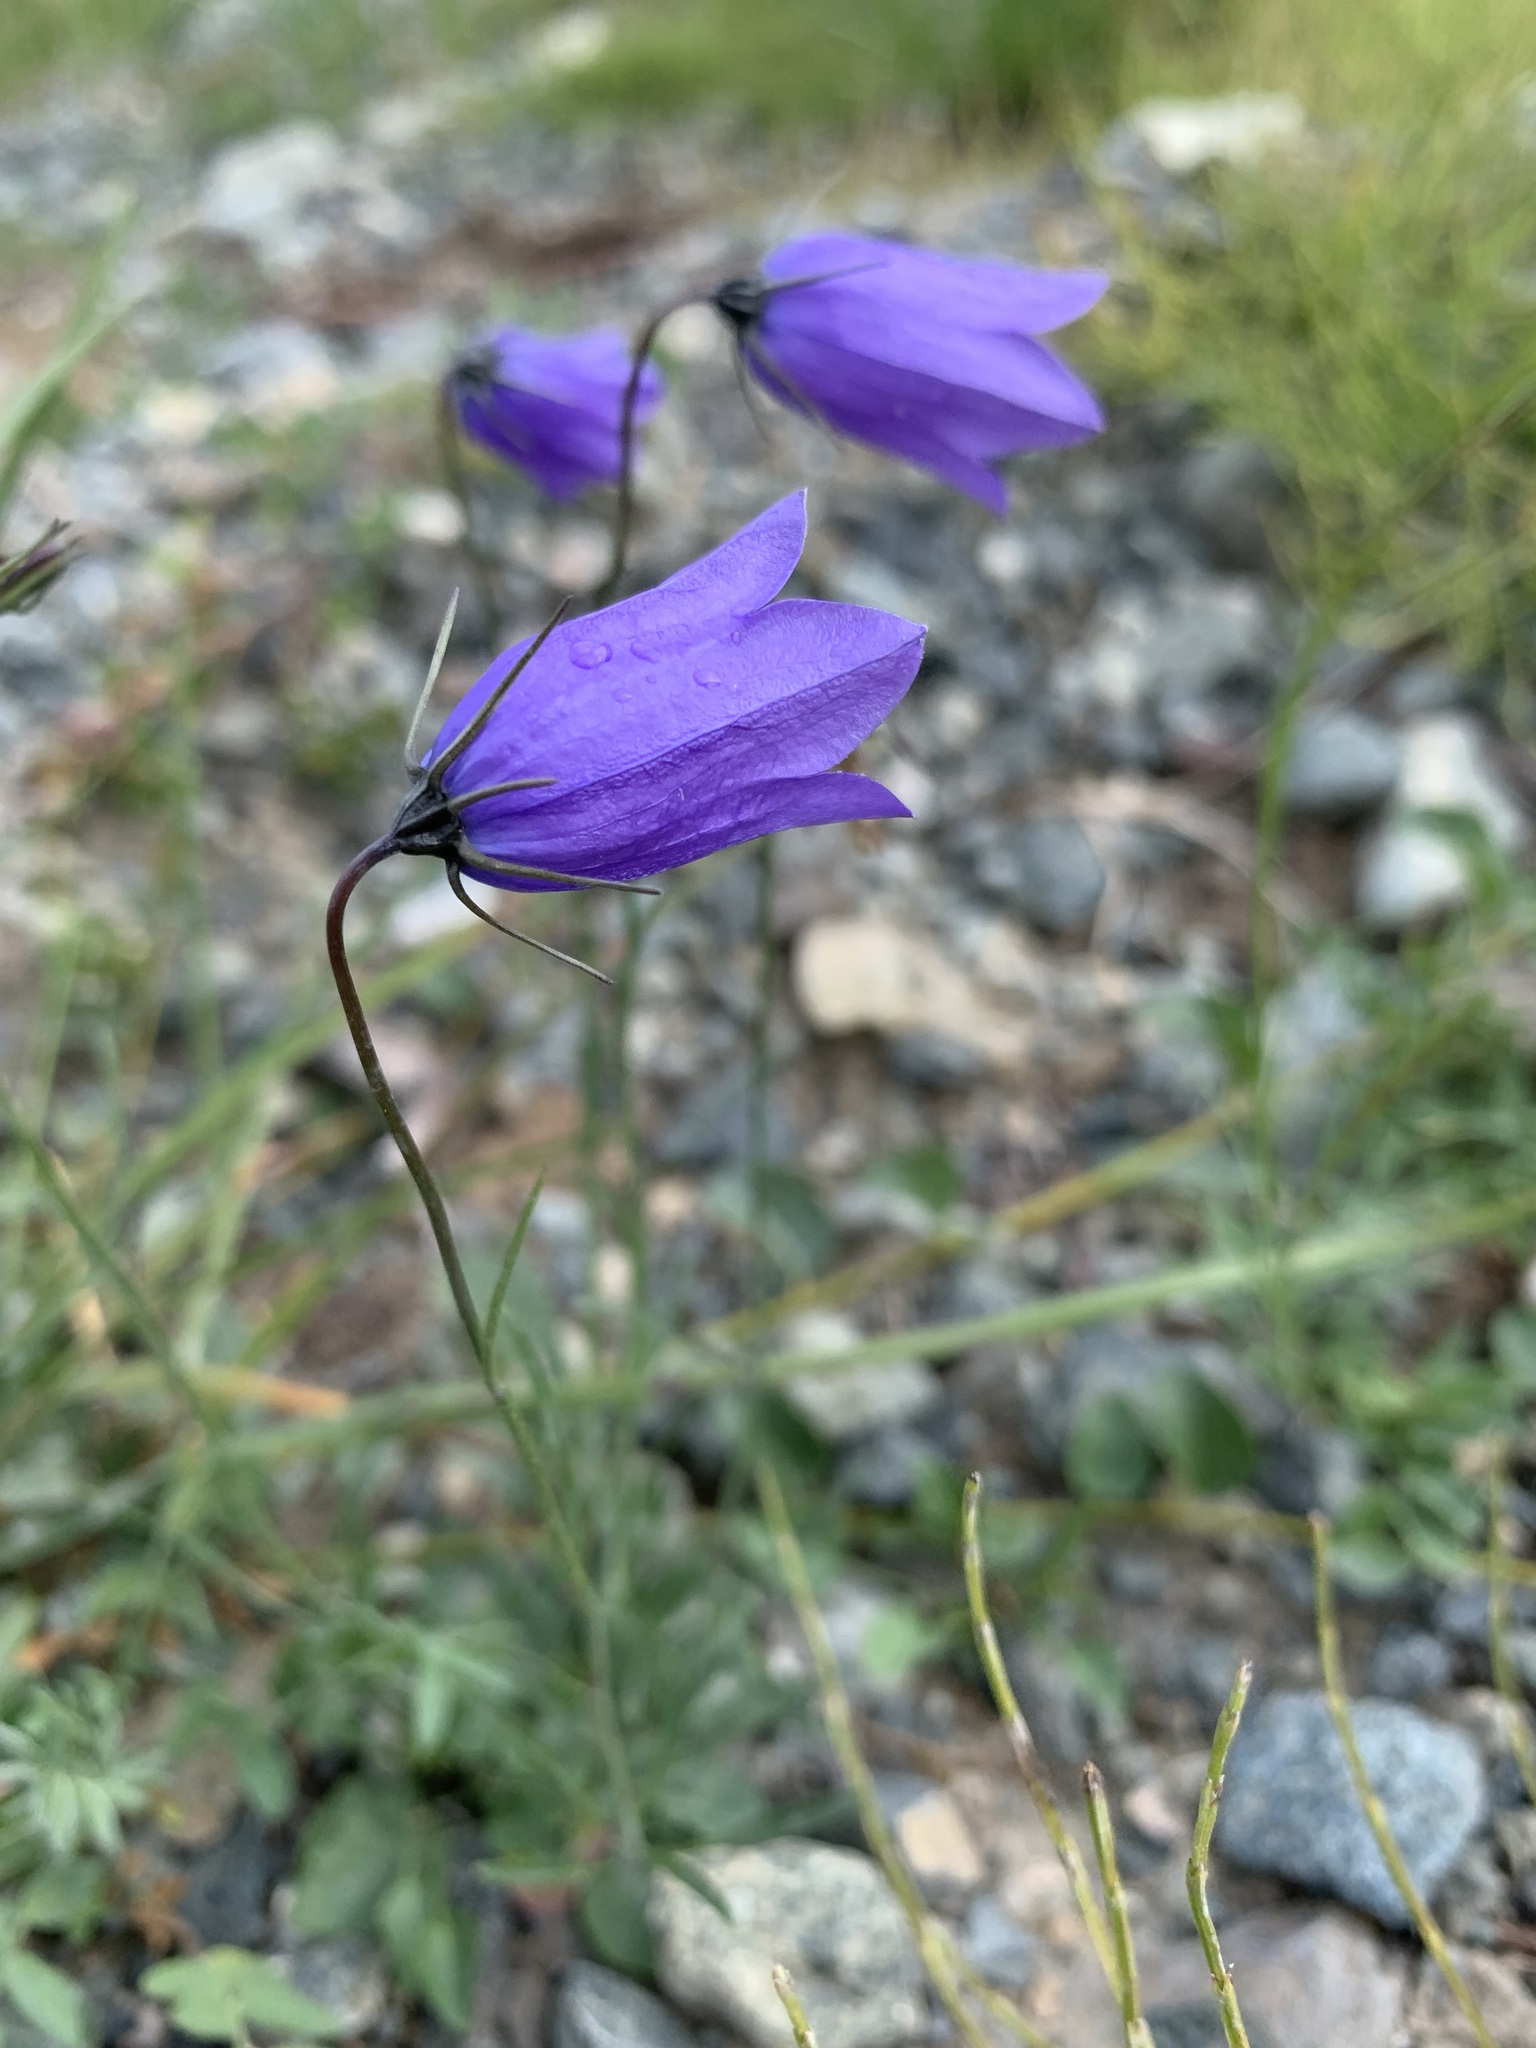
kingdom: Plantae
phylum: Tracheophyta
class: Magnoliopsida
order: Asterales
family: Campanulaceae
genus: Campanula
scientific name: Campanula rotundifolia
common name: Harebell
